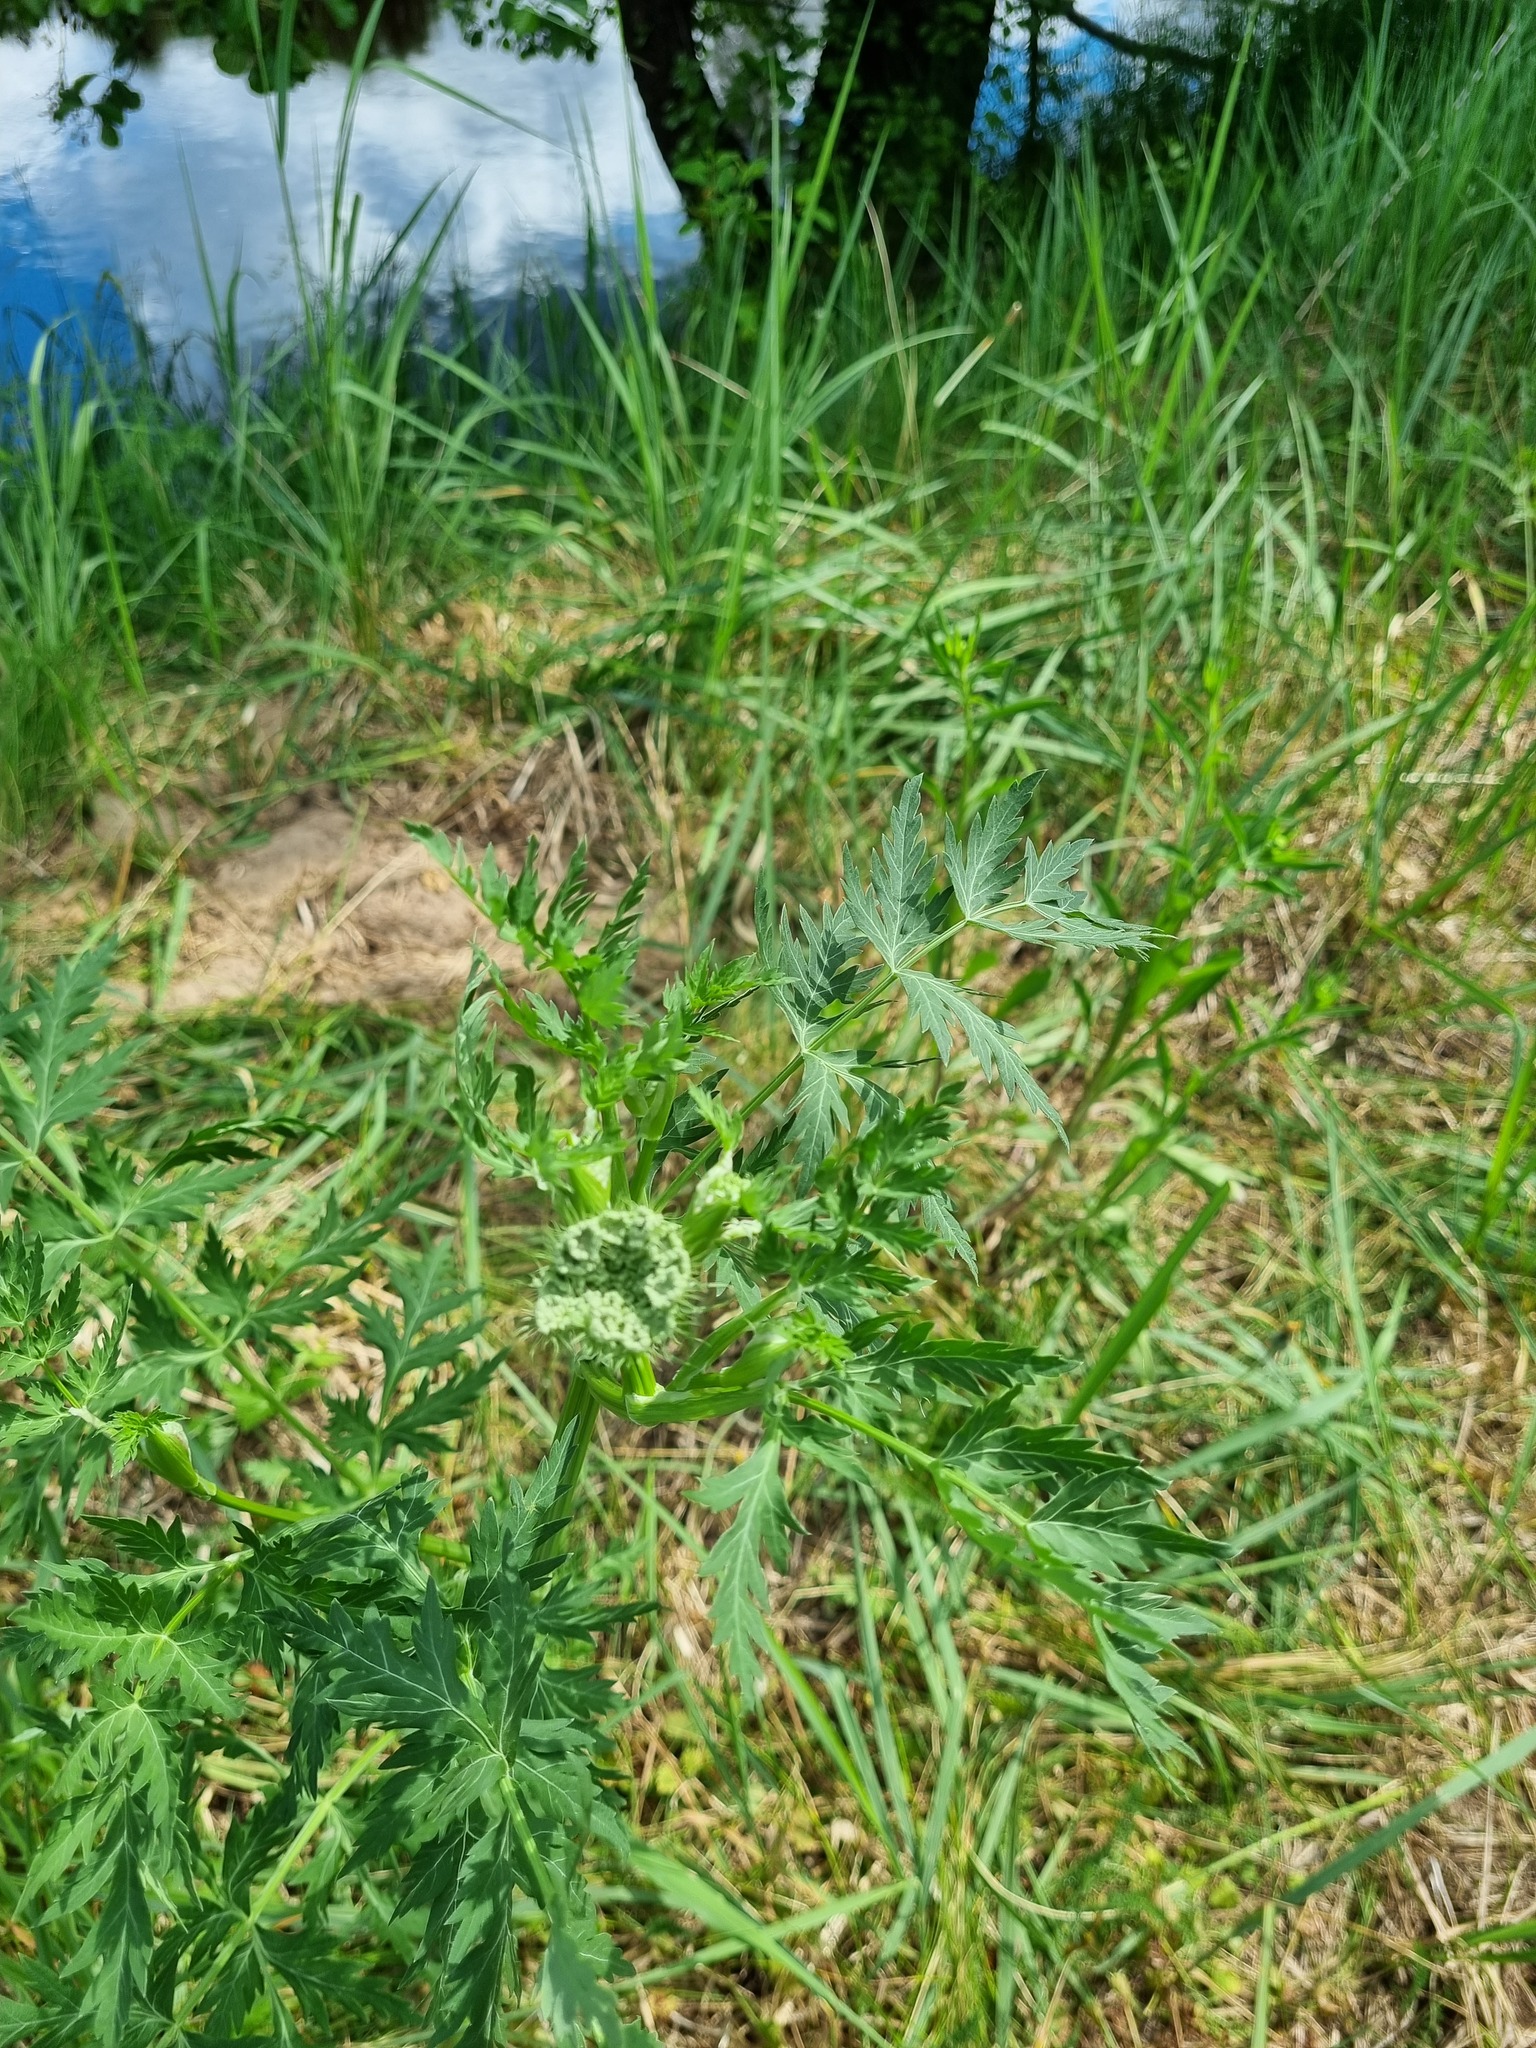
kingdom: Plantae
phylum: Tracheophyta
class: Magnoliopsida
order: Apiales
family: Apiaceae
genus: Seseli
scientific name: Seseli libanotis
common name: Mooncarrot
